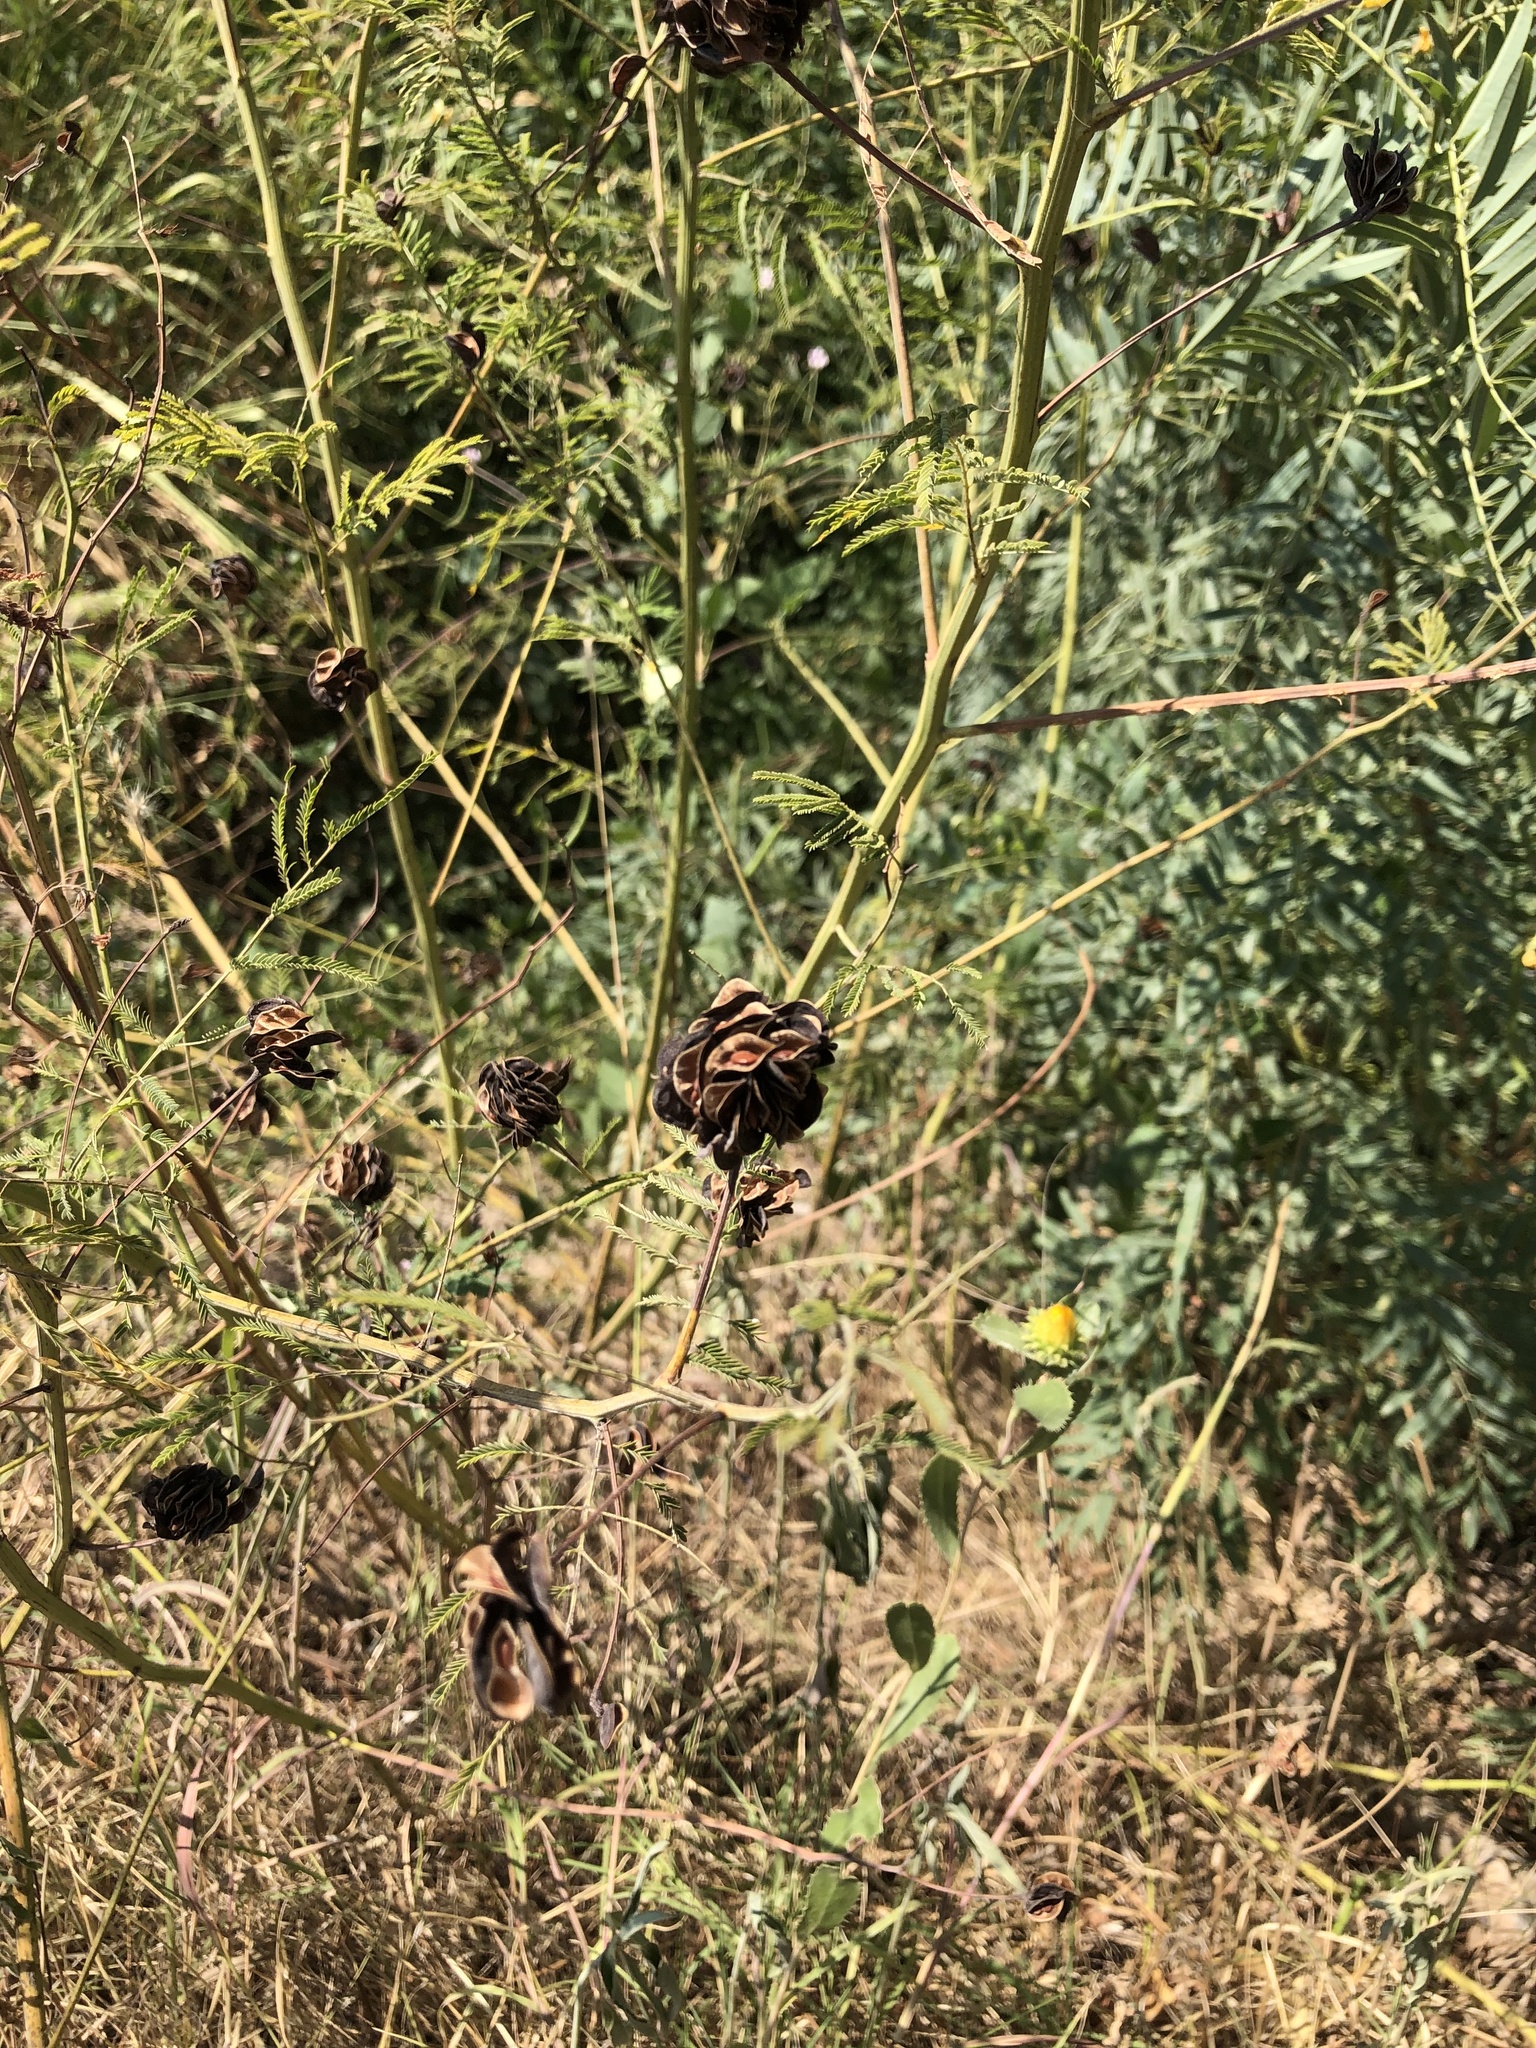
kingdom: Plantae
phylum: Tracheophyta
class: Magnoliopsida
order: Fabales
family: Fabaceae
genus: Desmanthus
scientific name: Desmanthus illinoensis
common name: Illinois bundle-flower
